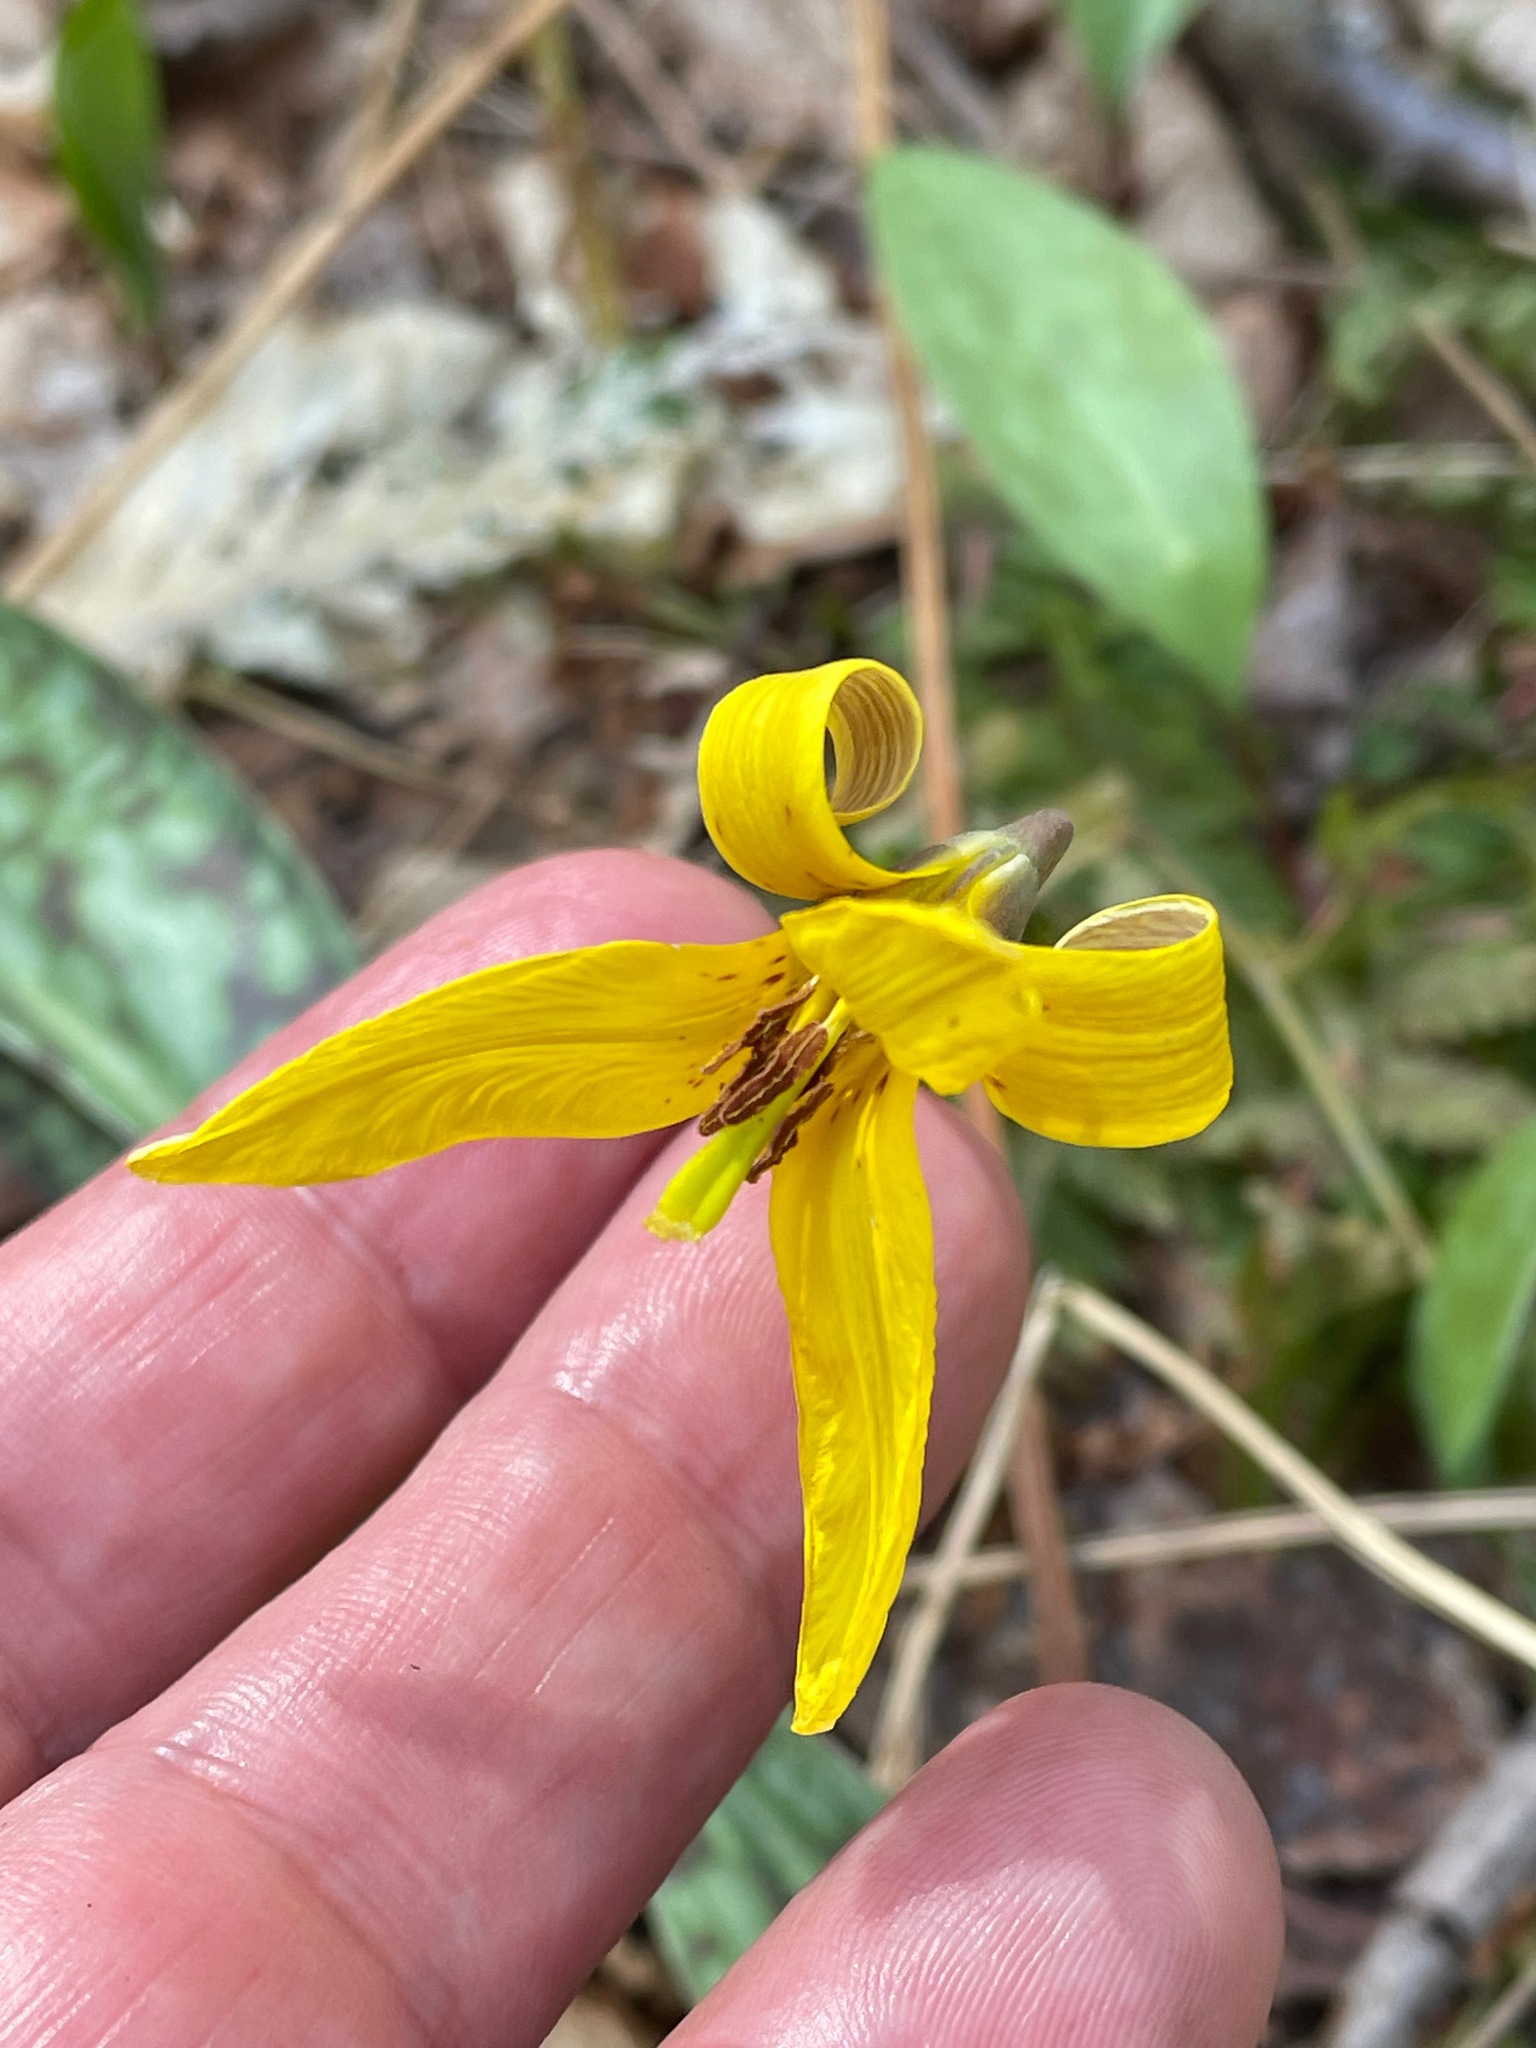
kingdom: Plantae
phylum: Tracheophyta
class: Liliopsida
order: Liliales
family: Liliaceae
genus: Erythronium
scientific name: Erythronium americanum
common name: Yellow adder's-tongue
